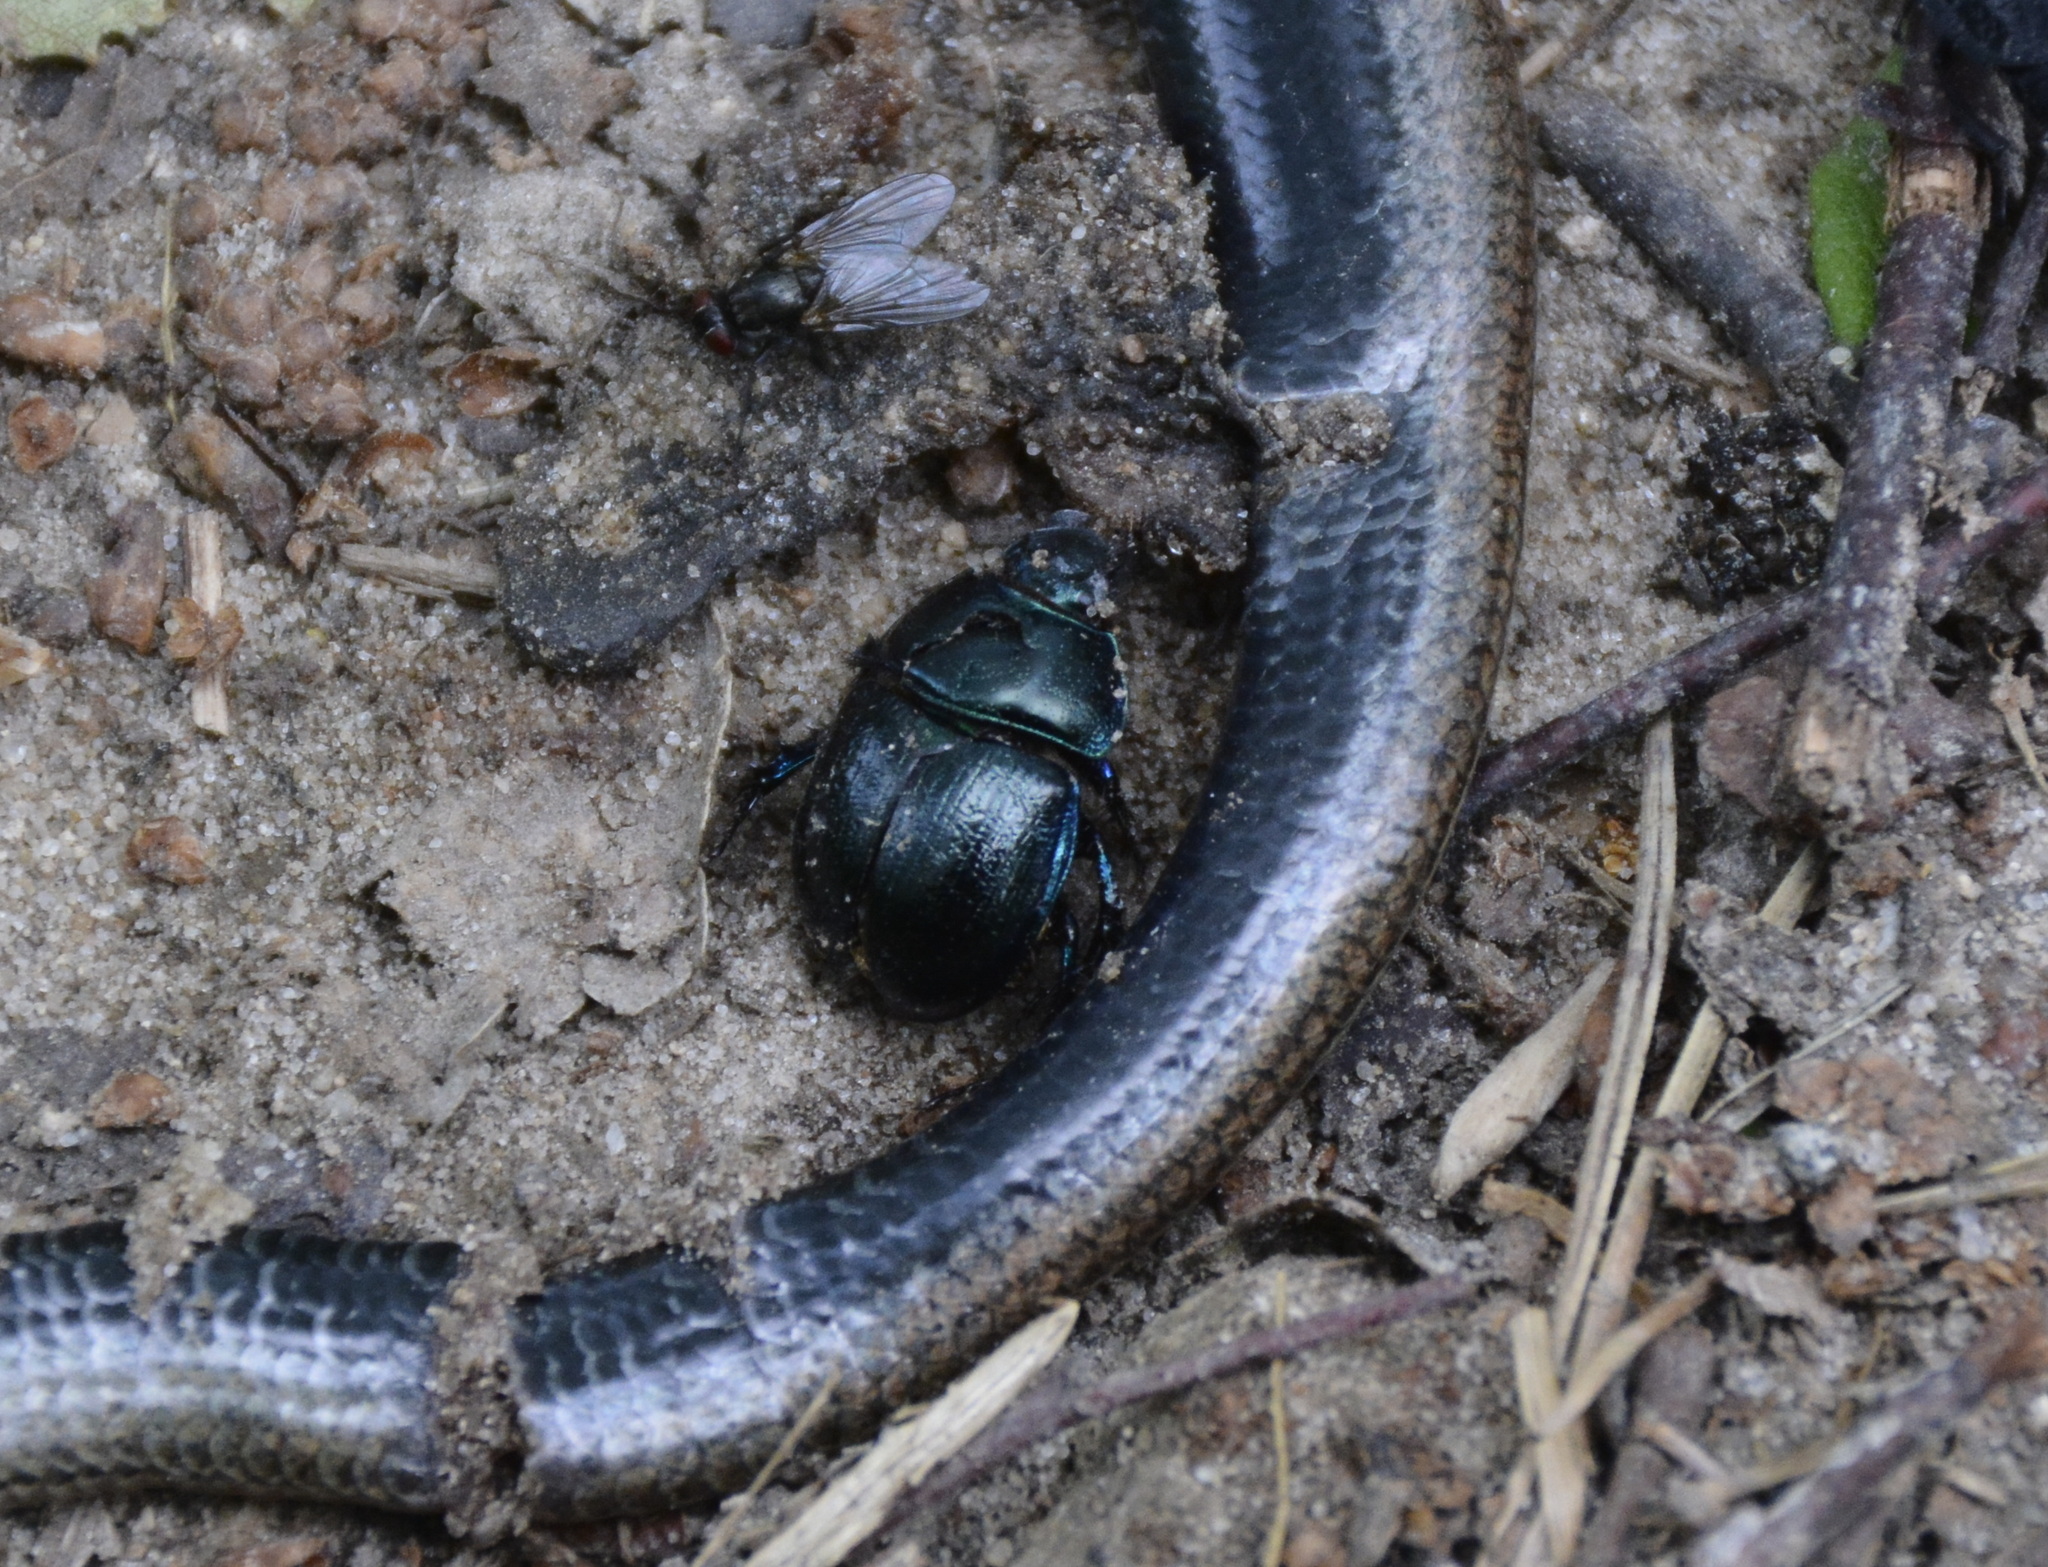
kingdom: Animalia
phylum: Arthropoda
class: Insecta
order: Coleoptera
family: Geotrupidae
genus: Anoplotrupes
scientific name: Anoplotrupes stercorosus
